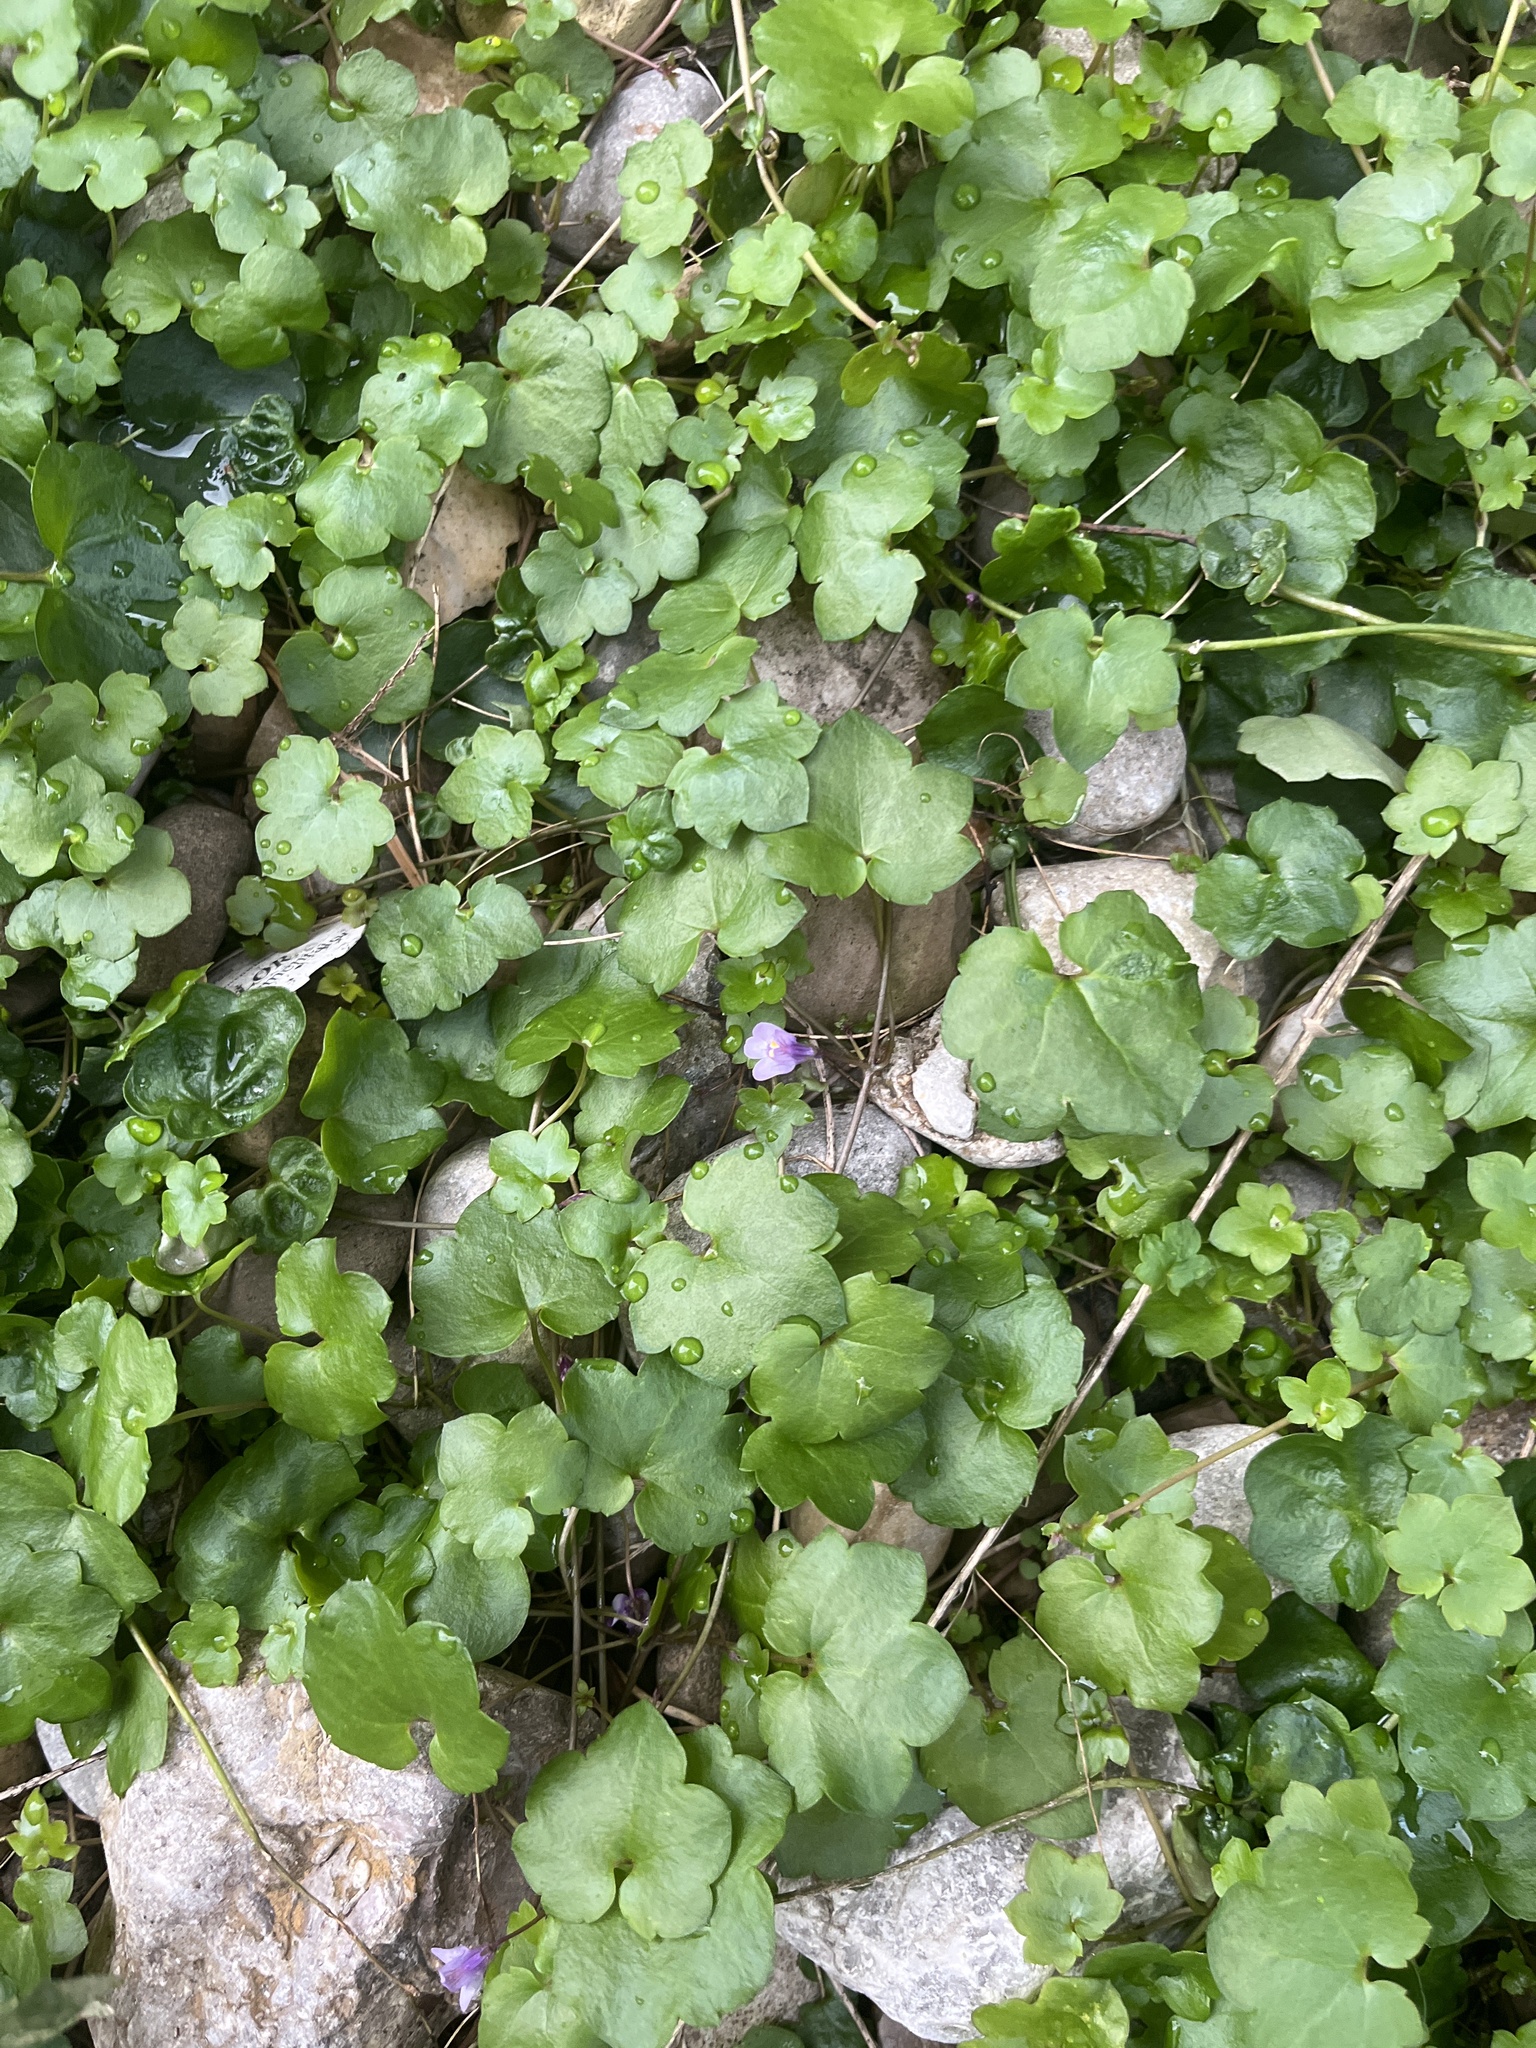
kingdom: Plantae
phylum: Tracheophyta
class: Magnoliopsida
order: Lamiales
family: Plantaginaceae
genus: Cymbalaria
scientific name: Cymbalaria muralis
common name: Ivy-leaved toadflax
